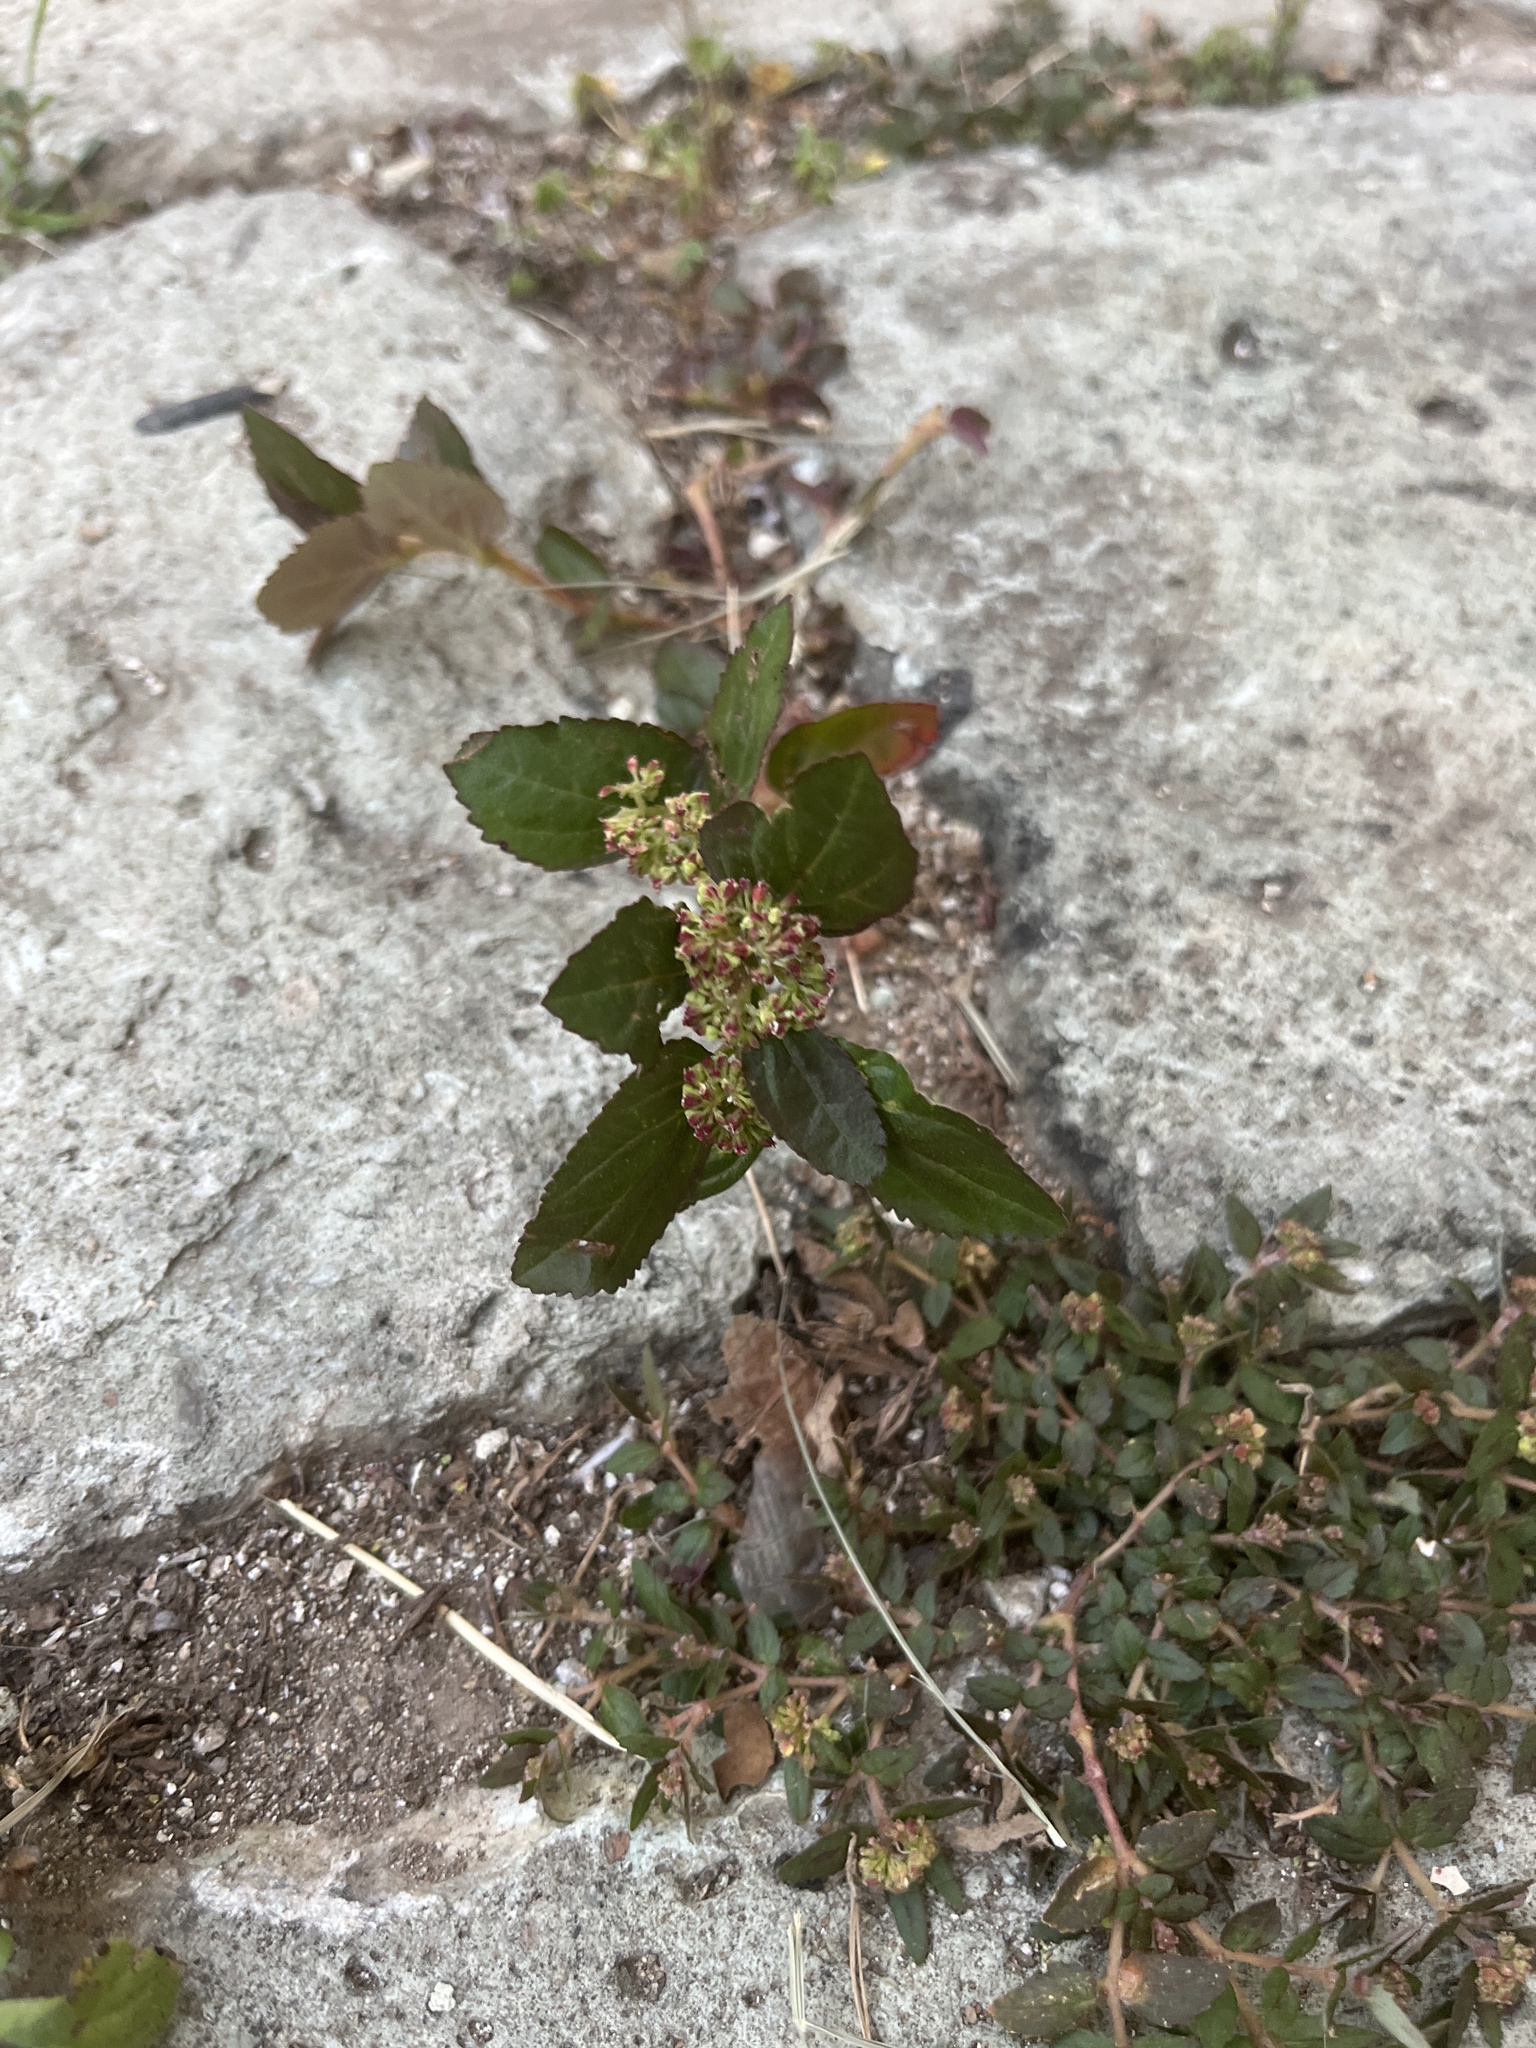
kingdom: Plantae
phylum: Tracheophyta
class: Magnoliopsida
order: Malpighiales
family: Euphorbiaceae
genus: Euphorbia
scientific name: Euphorbia hirta
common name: Pillpod sandmat
